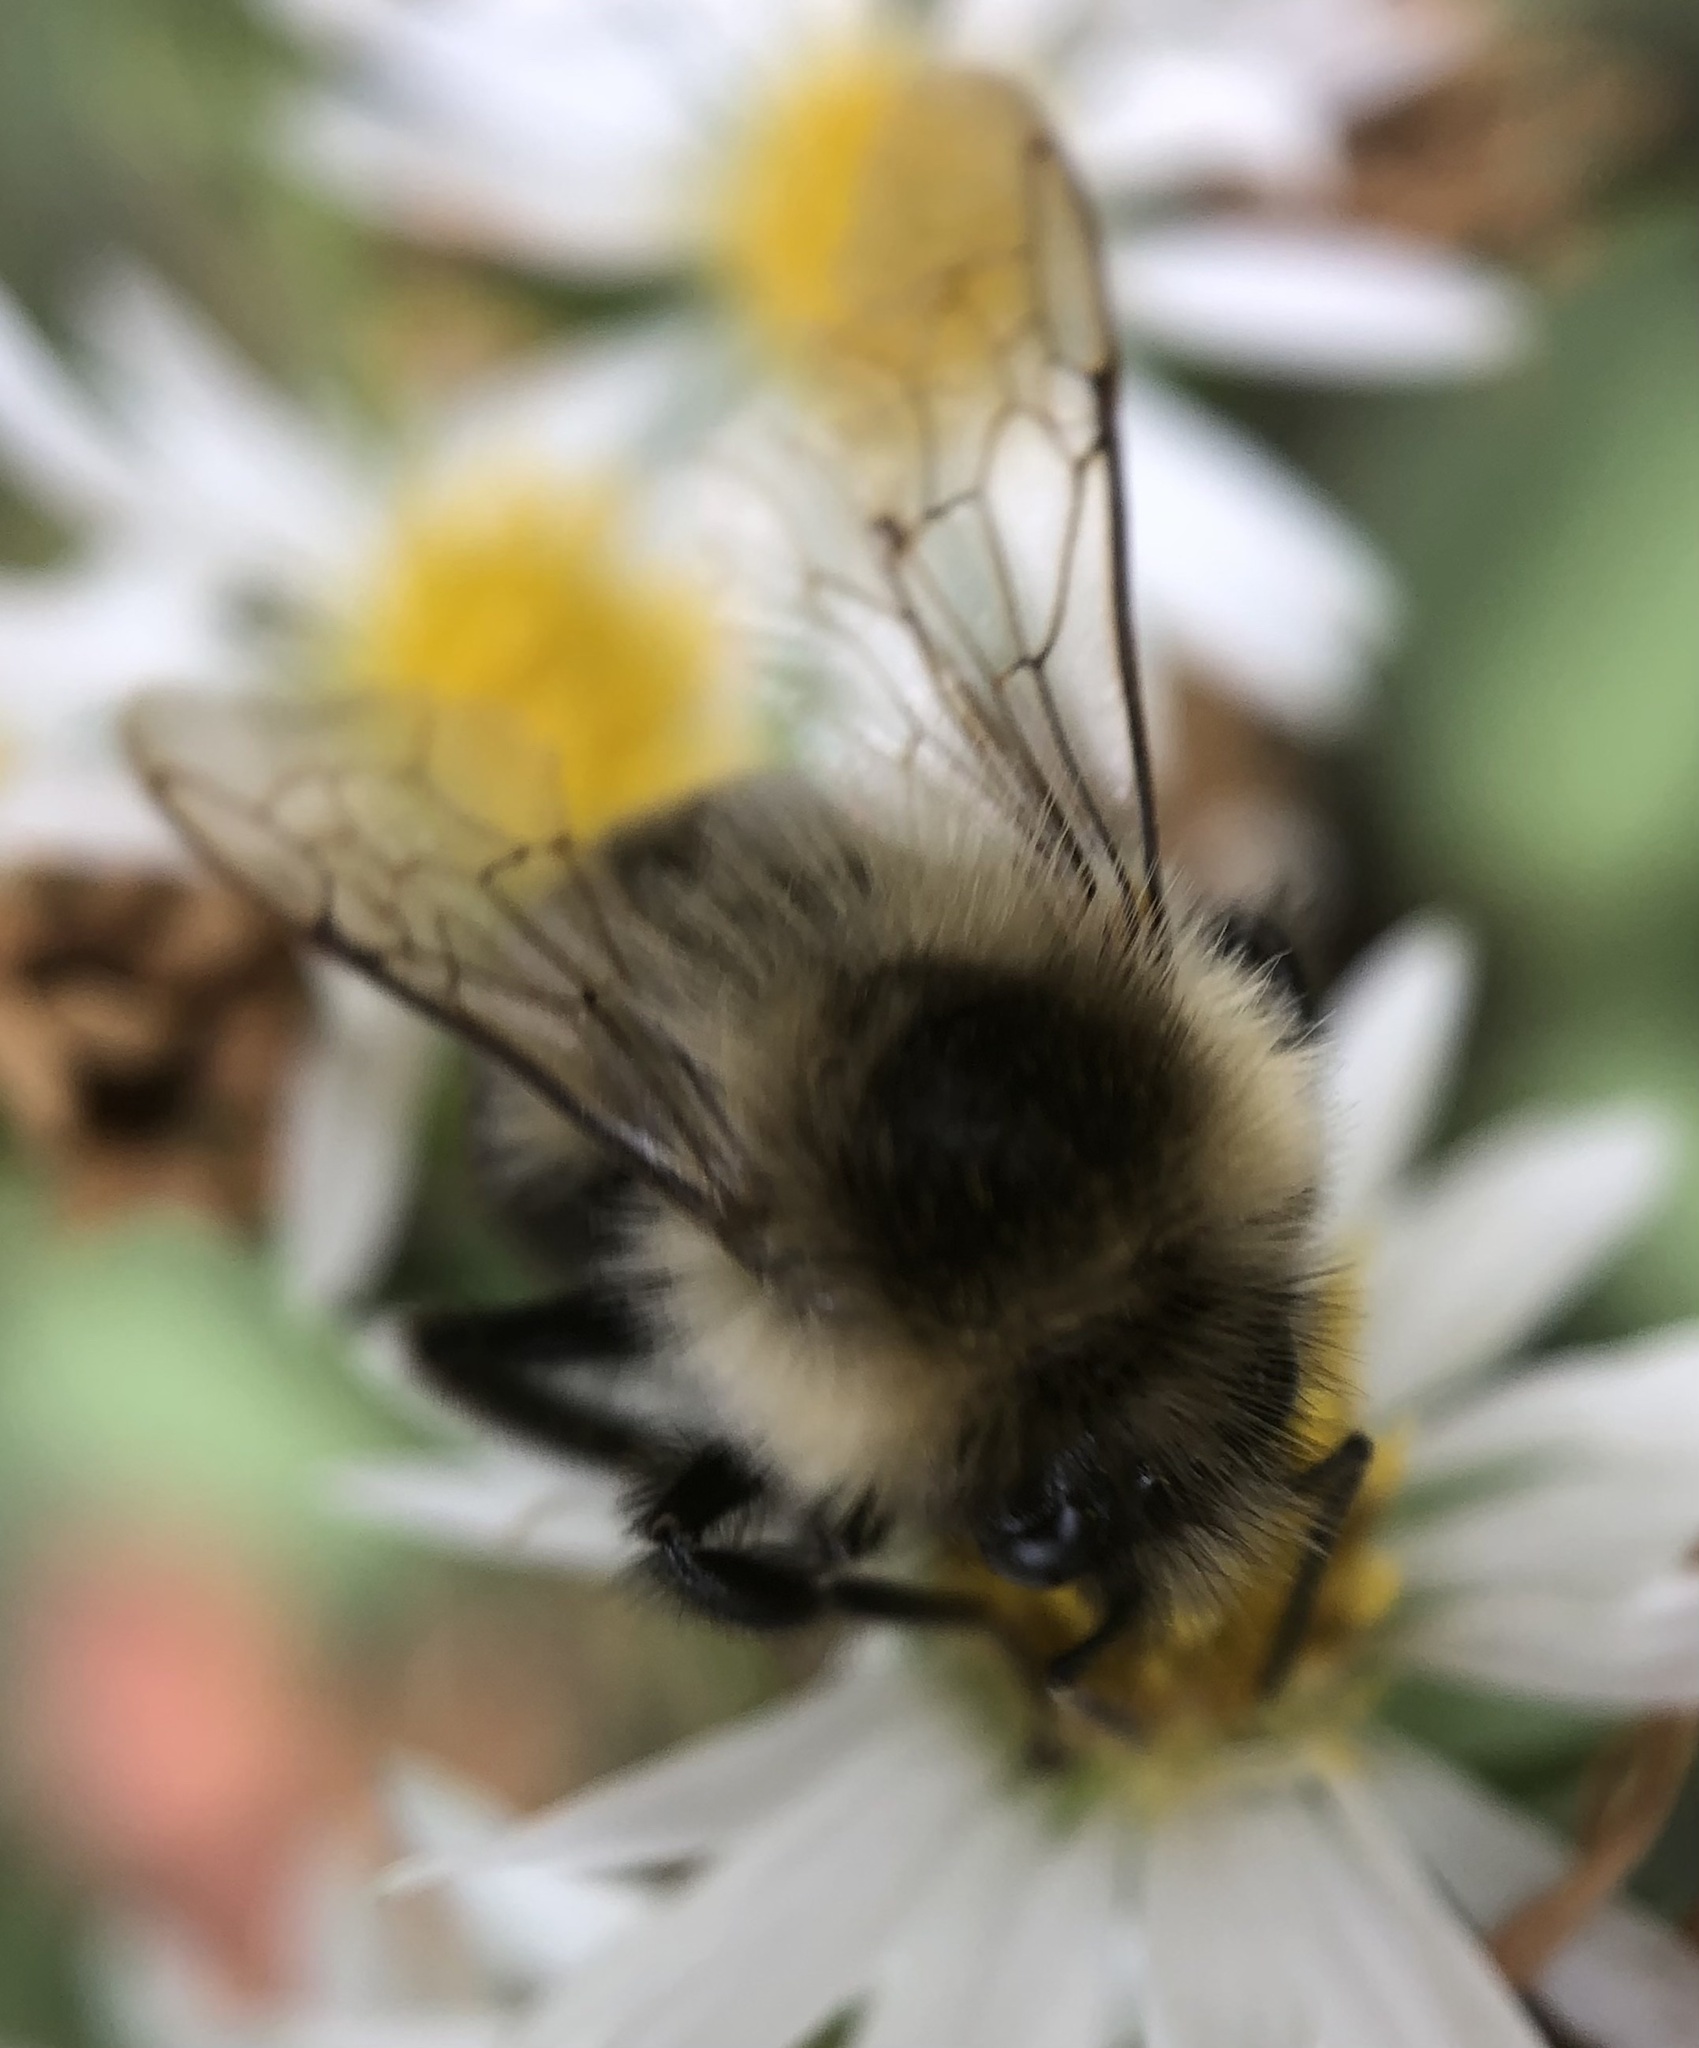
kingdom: Animalia
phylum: Arthropoda
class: Insecta
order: Hymenoptera
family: Apidae
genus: Bombus
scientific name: Bombus impatiens
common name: Common eastern bumble bee
